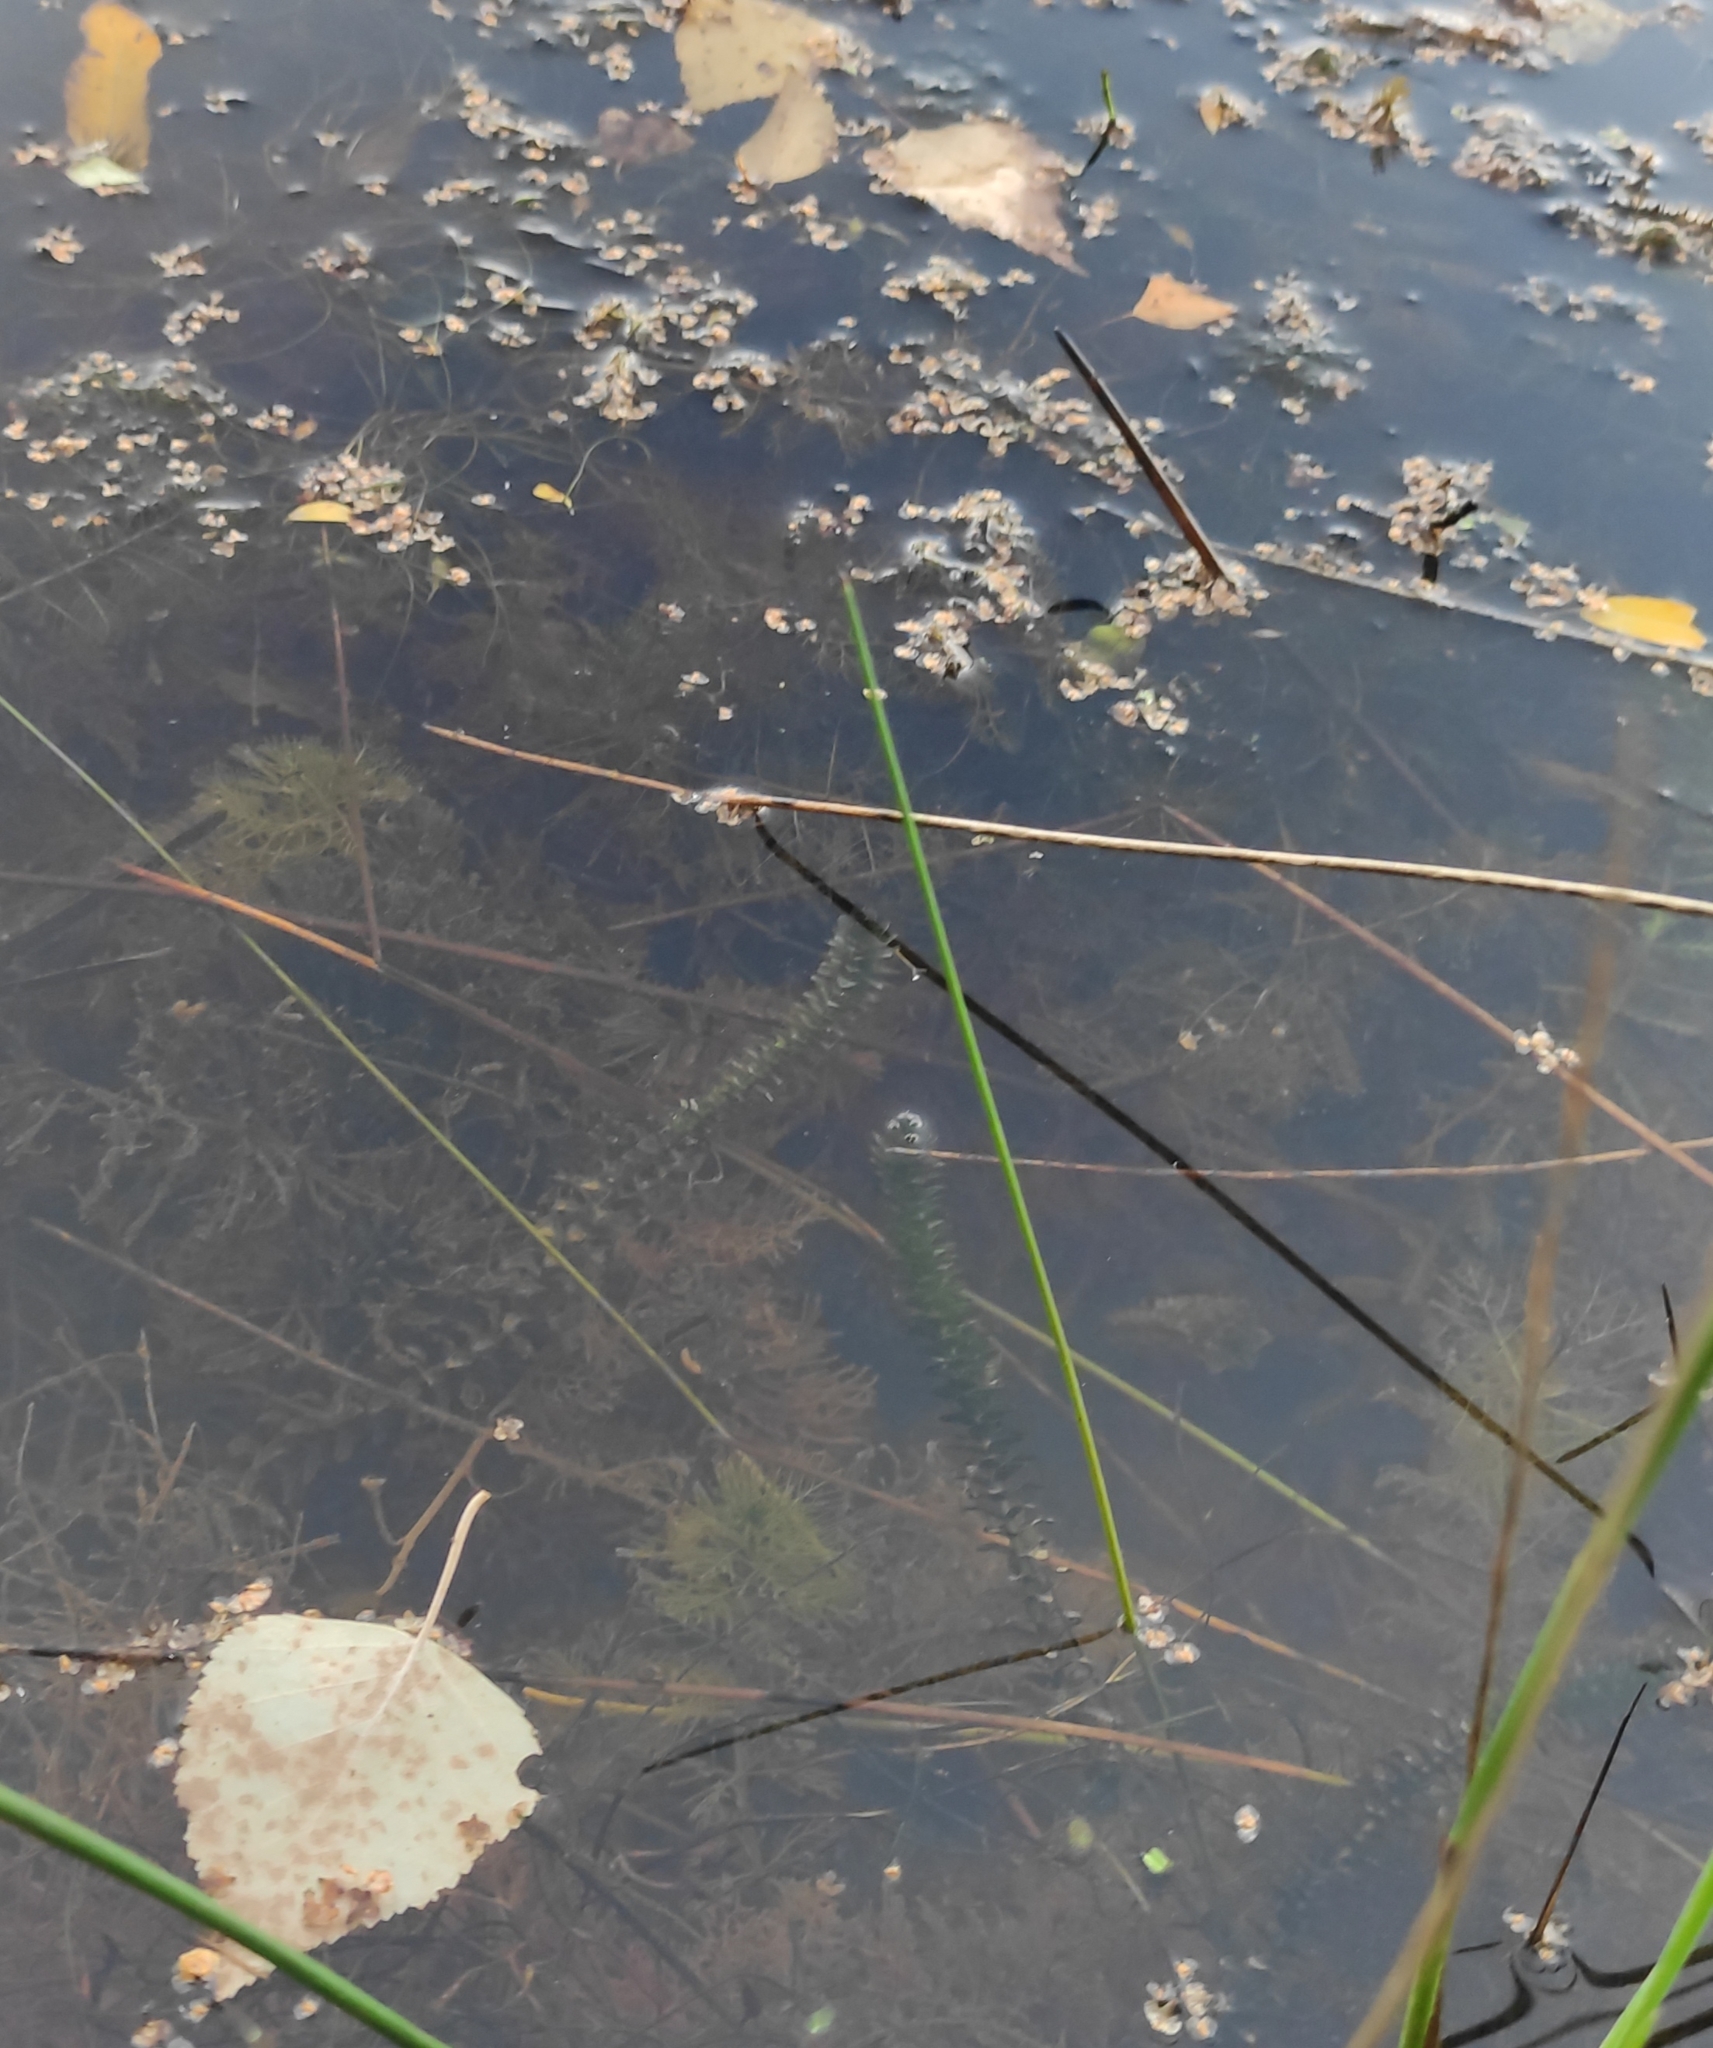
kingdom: Plantae
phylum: Tracheophyta
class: Liliopsida
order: Alismatales
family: Hydrocharitaceae
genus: Elodea
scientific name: Elodea canadensis
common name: Canadian waterweed
